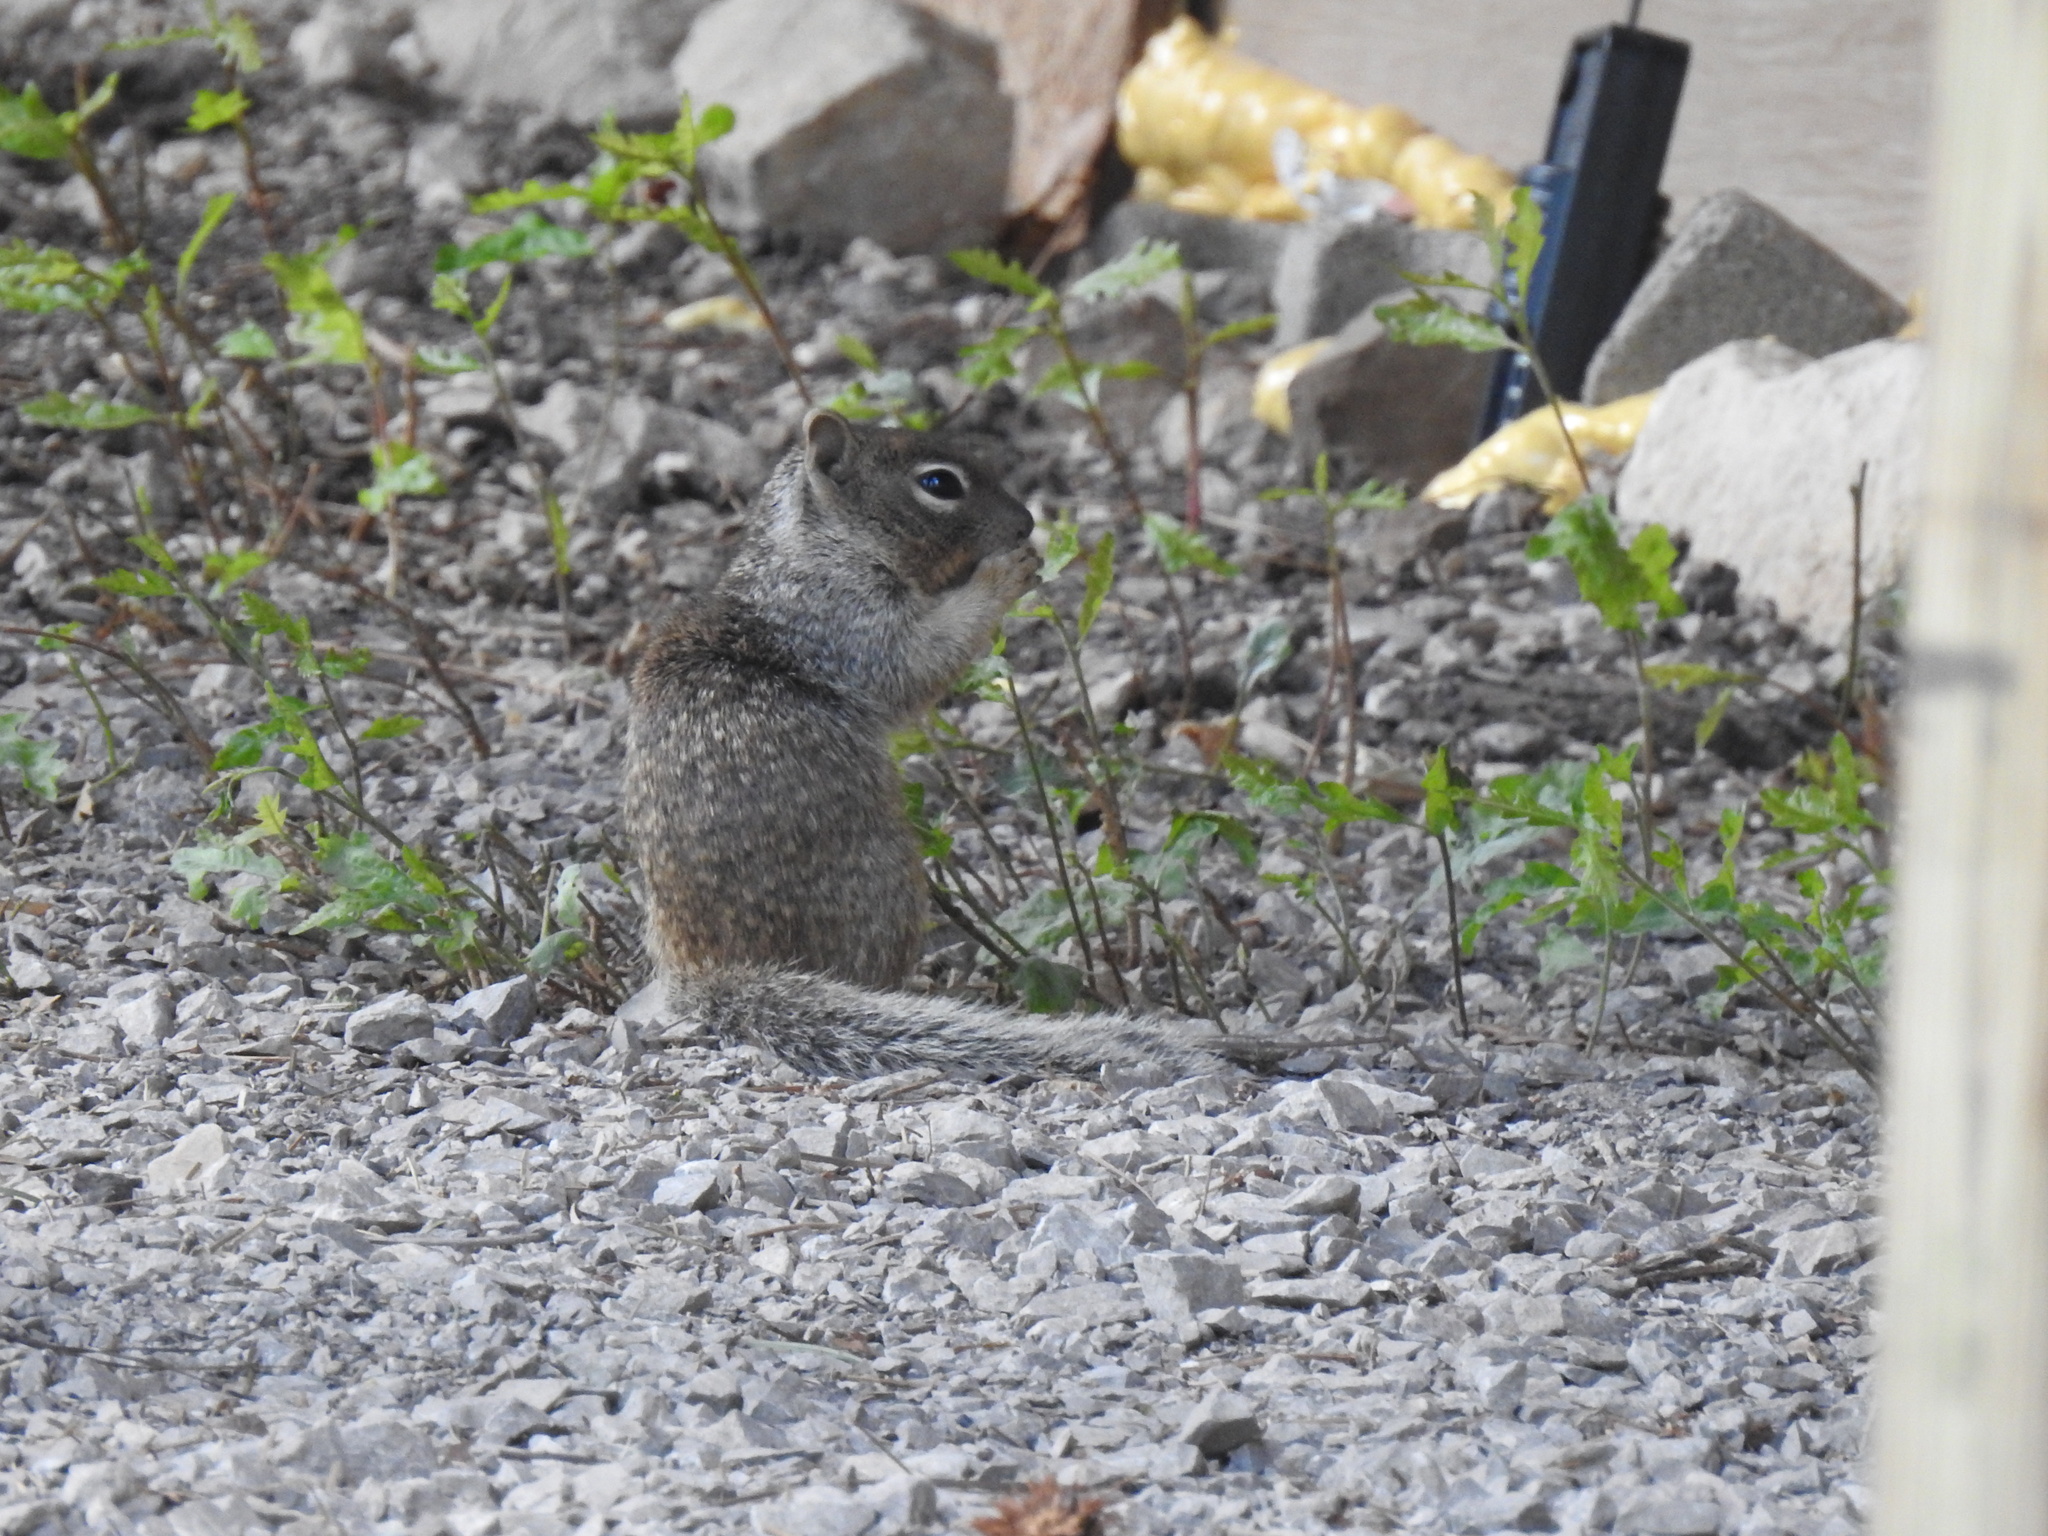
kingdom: Animalia
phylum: Chordata
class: Mammalia
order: Rodentia
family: Sciuridae
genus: Otospermophilus
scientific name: Otospermophilus variegatus
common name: Rock squirrel
